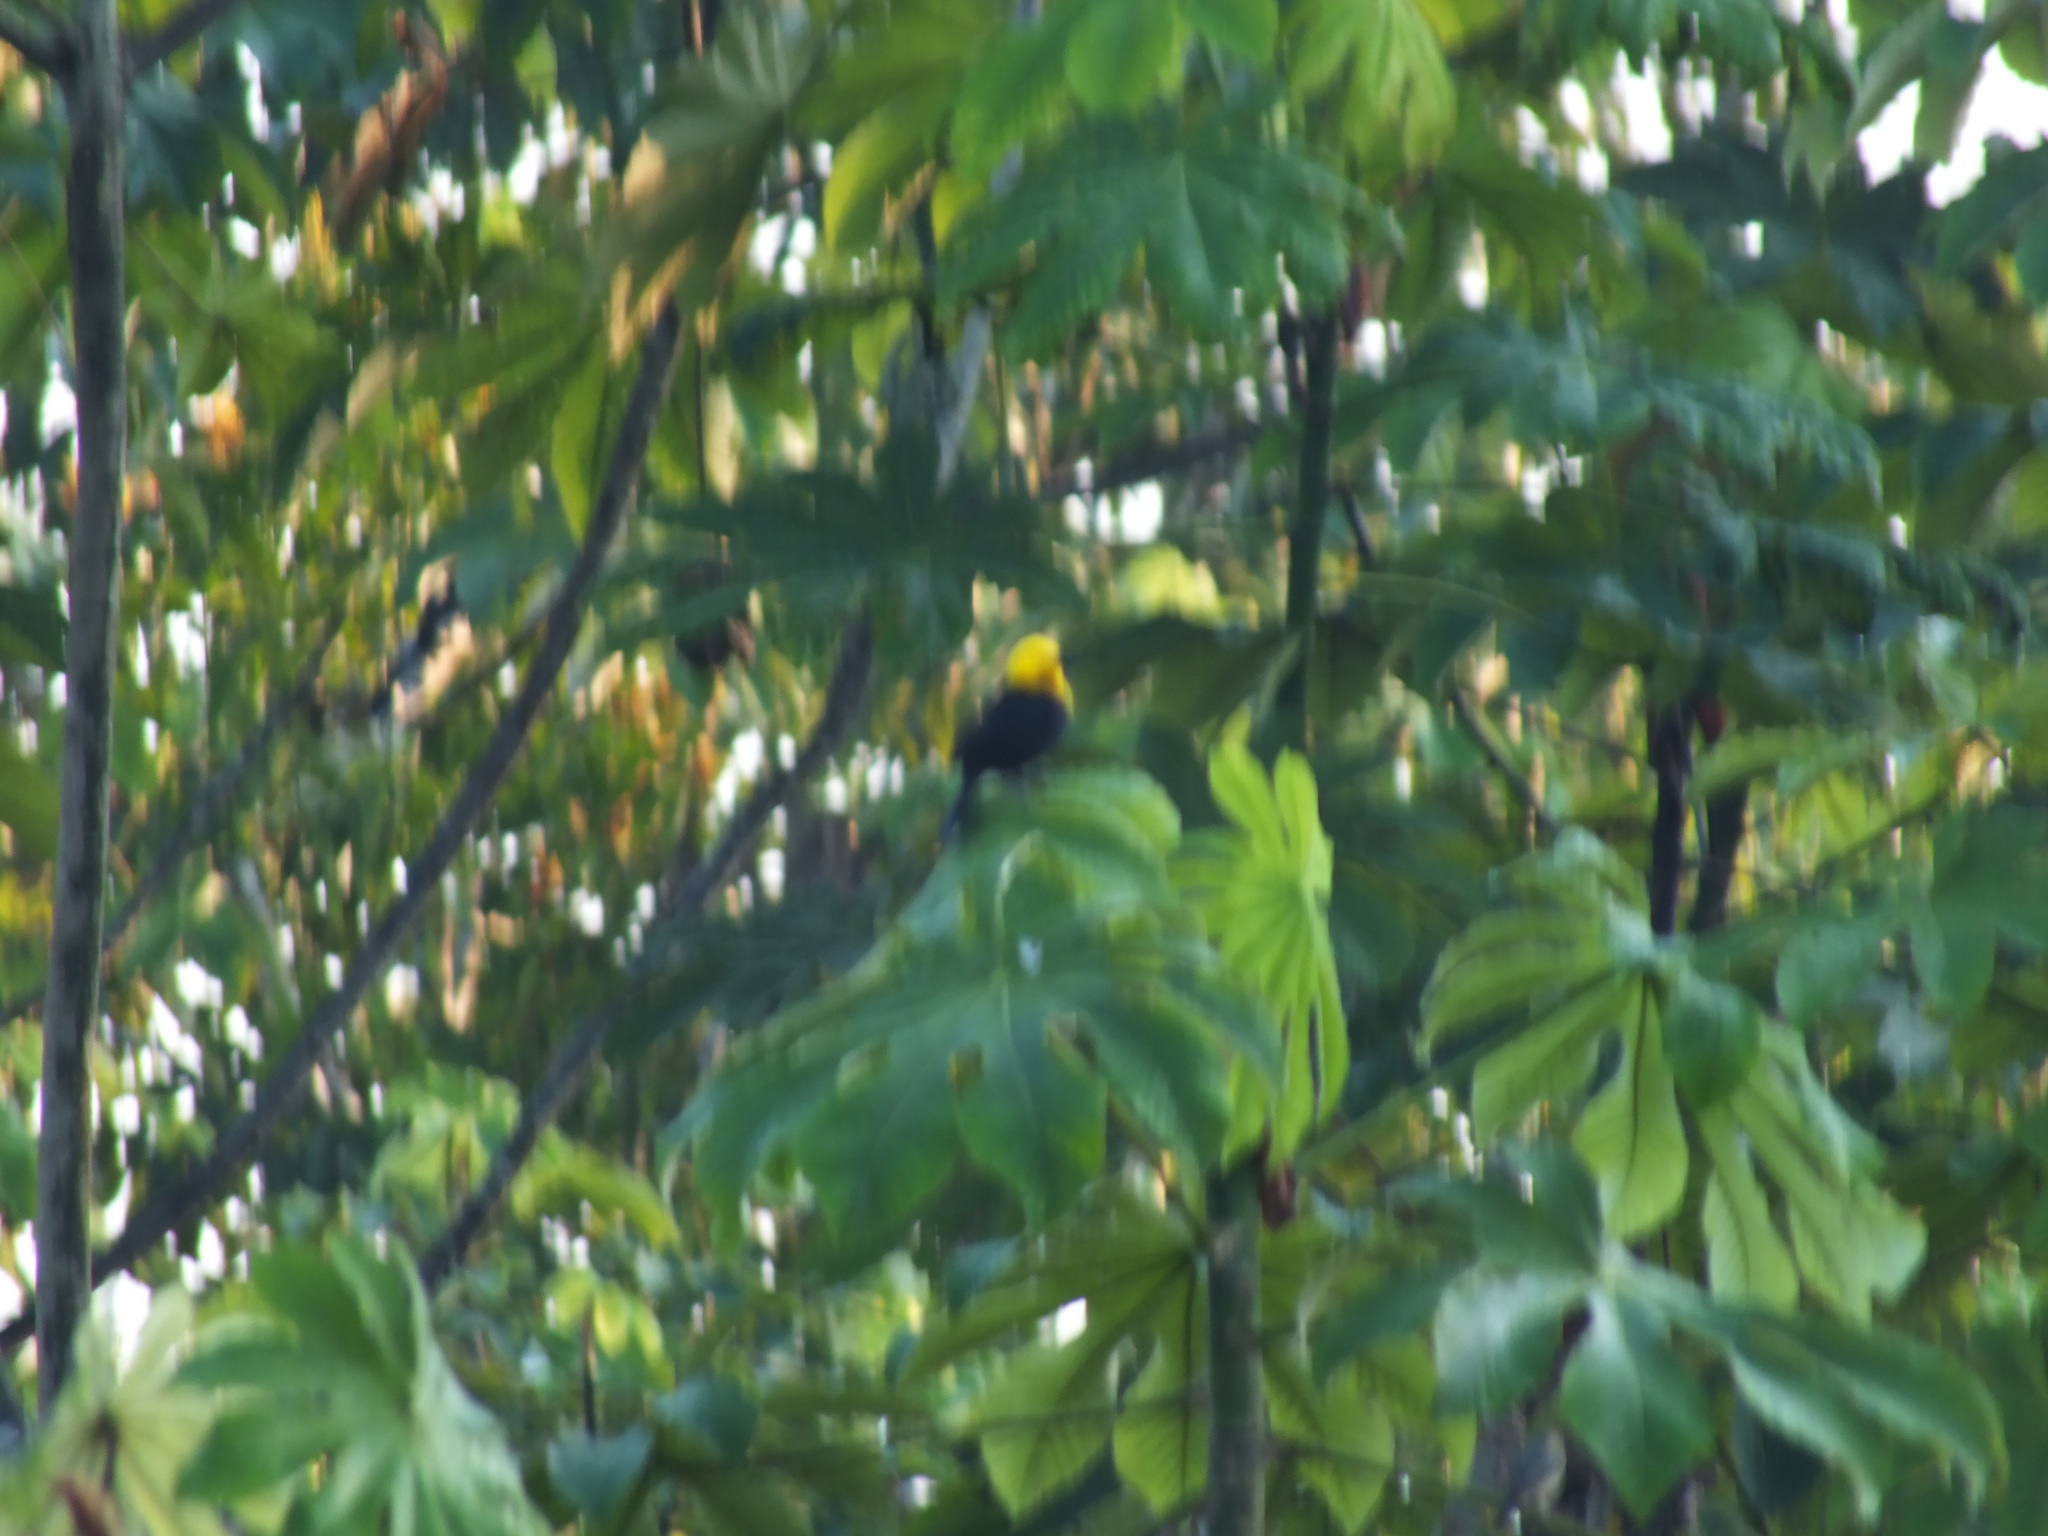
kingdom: Animalia
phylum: Chordata
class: Aves
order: Passeriformes
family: Icteridae
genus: Chrysomus
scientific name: Chrysomus icterocephalus
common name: Yellow-hooded blackbird
